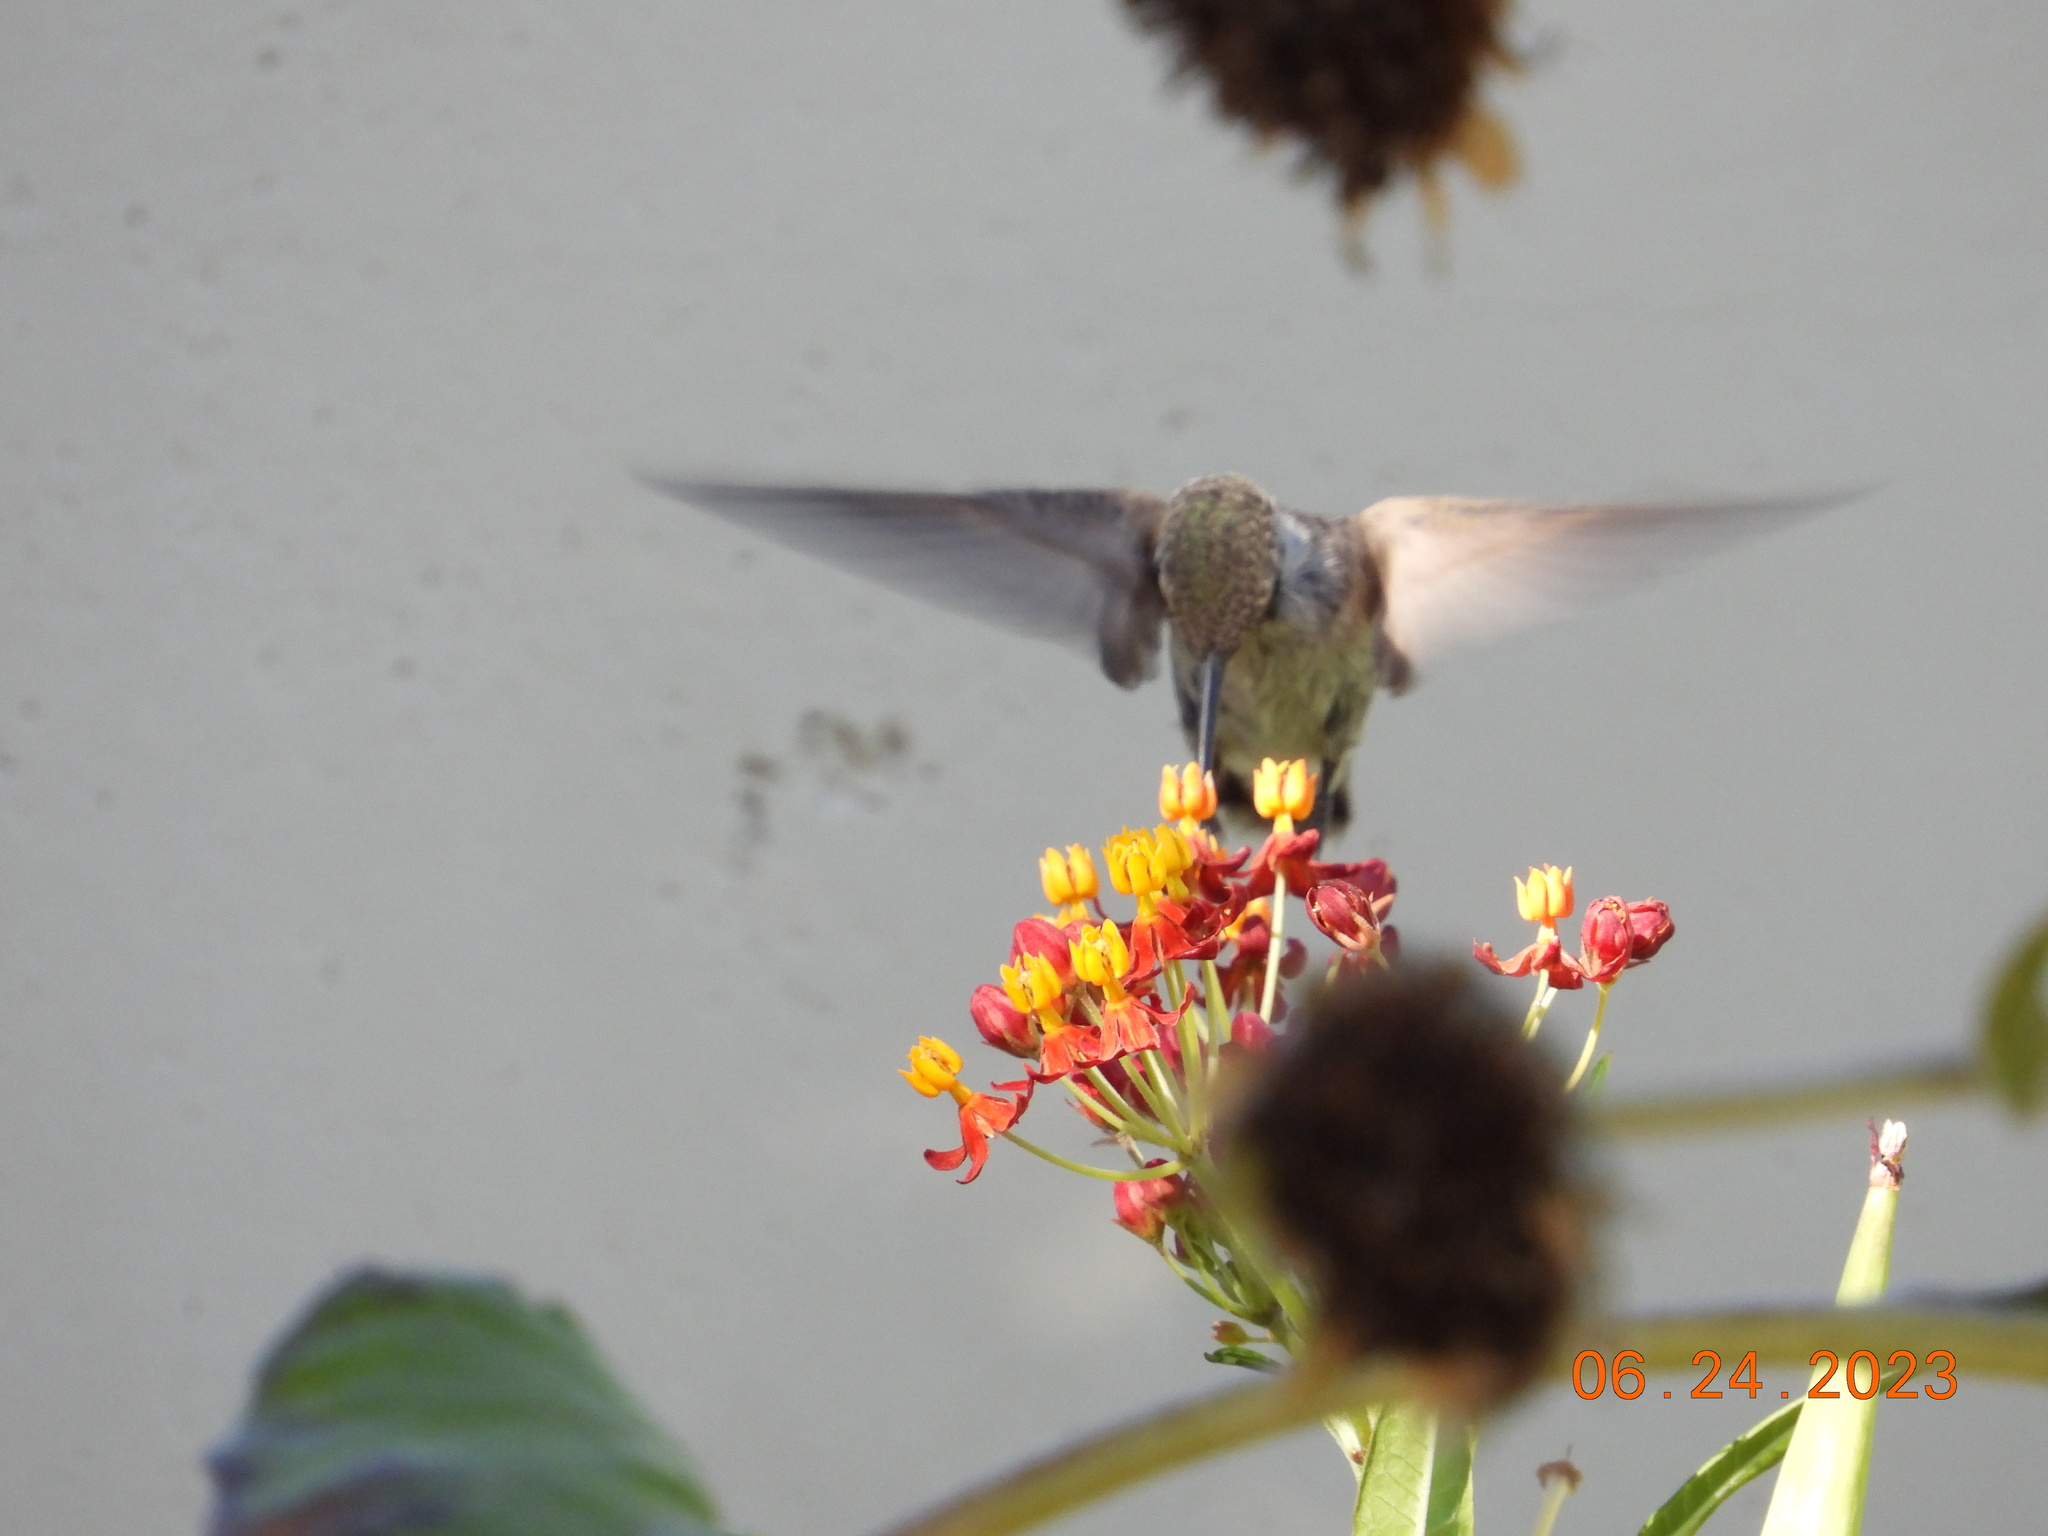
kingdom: Animalia
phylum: Chordata
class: Aves
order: Apodiformes
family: Trochilidae
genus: Calypte
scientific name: Calypte costae
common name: Costa's hummingbird
